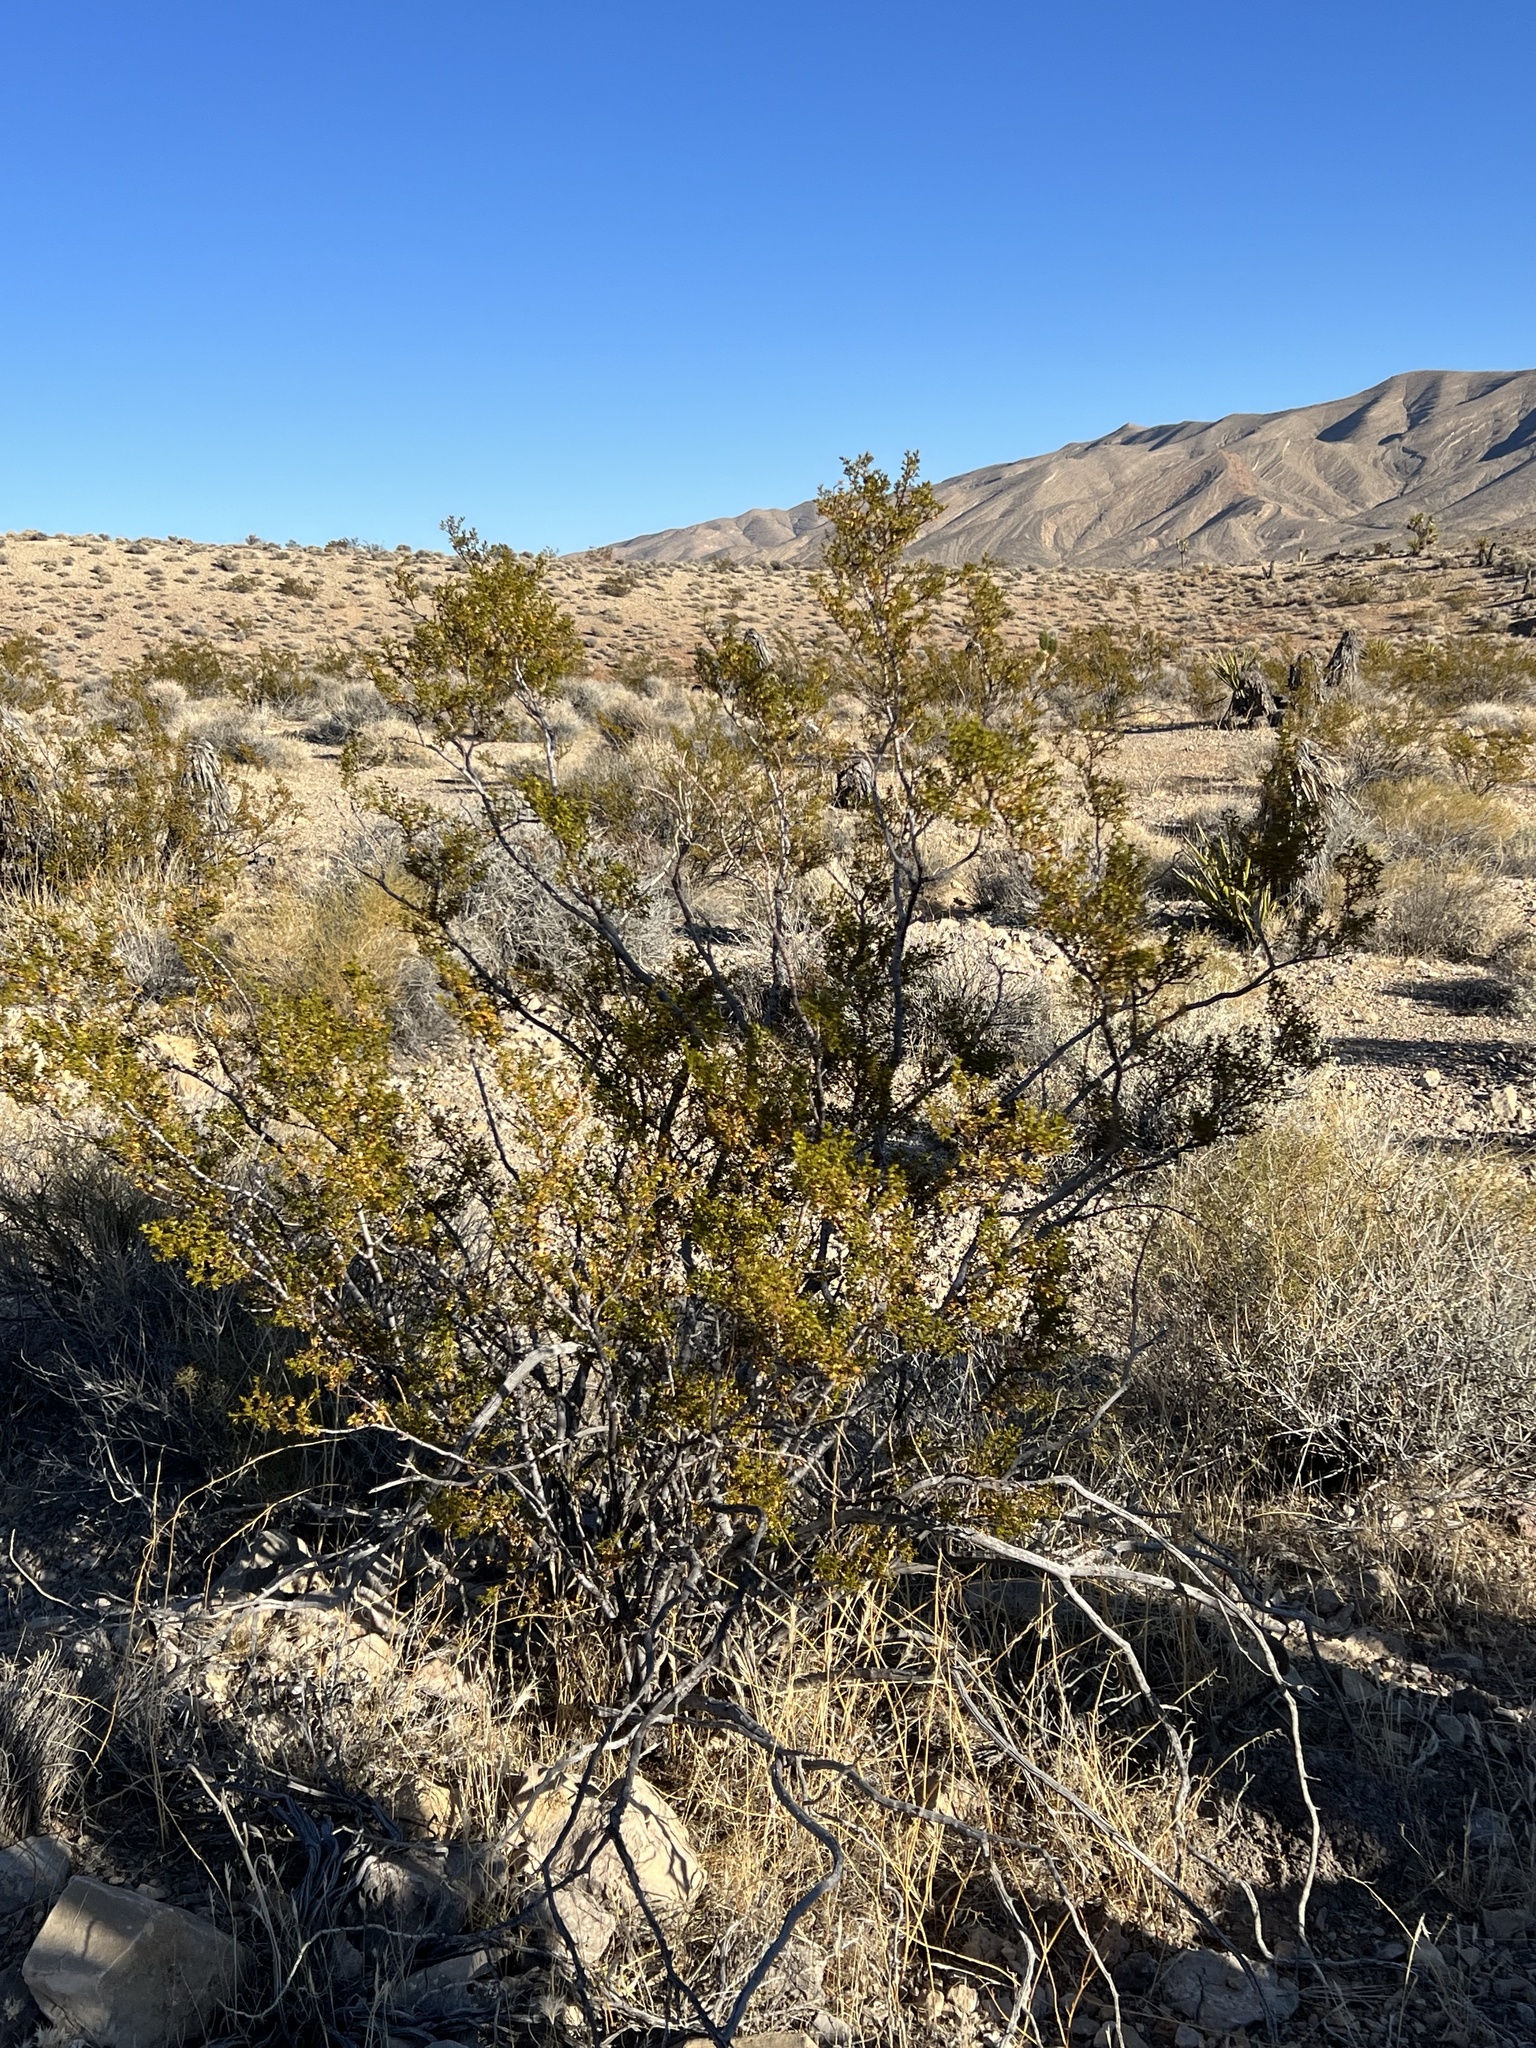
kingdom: Plantae
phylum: Tracheophyta
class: Magnoliopsida
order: Zygophyllales
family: Zygophyllaceae
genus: Larrea
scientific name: Larrea tridentata
